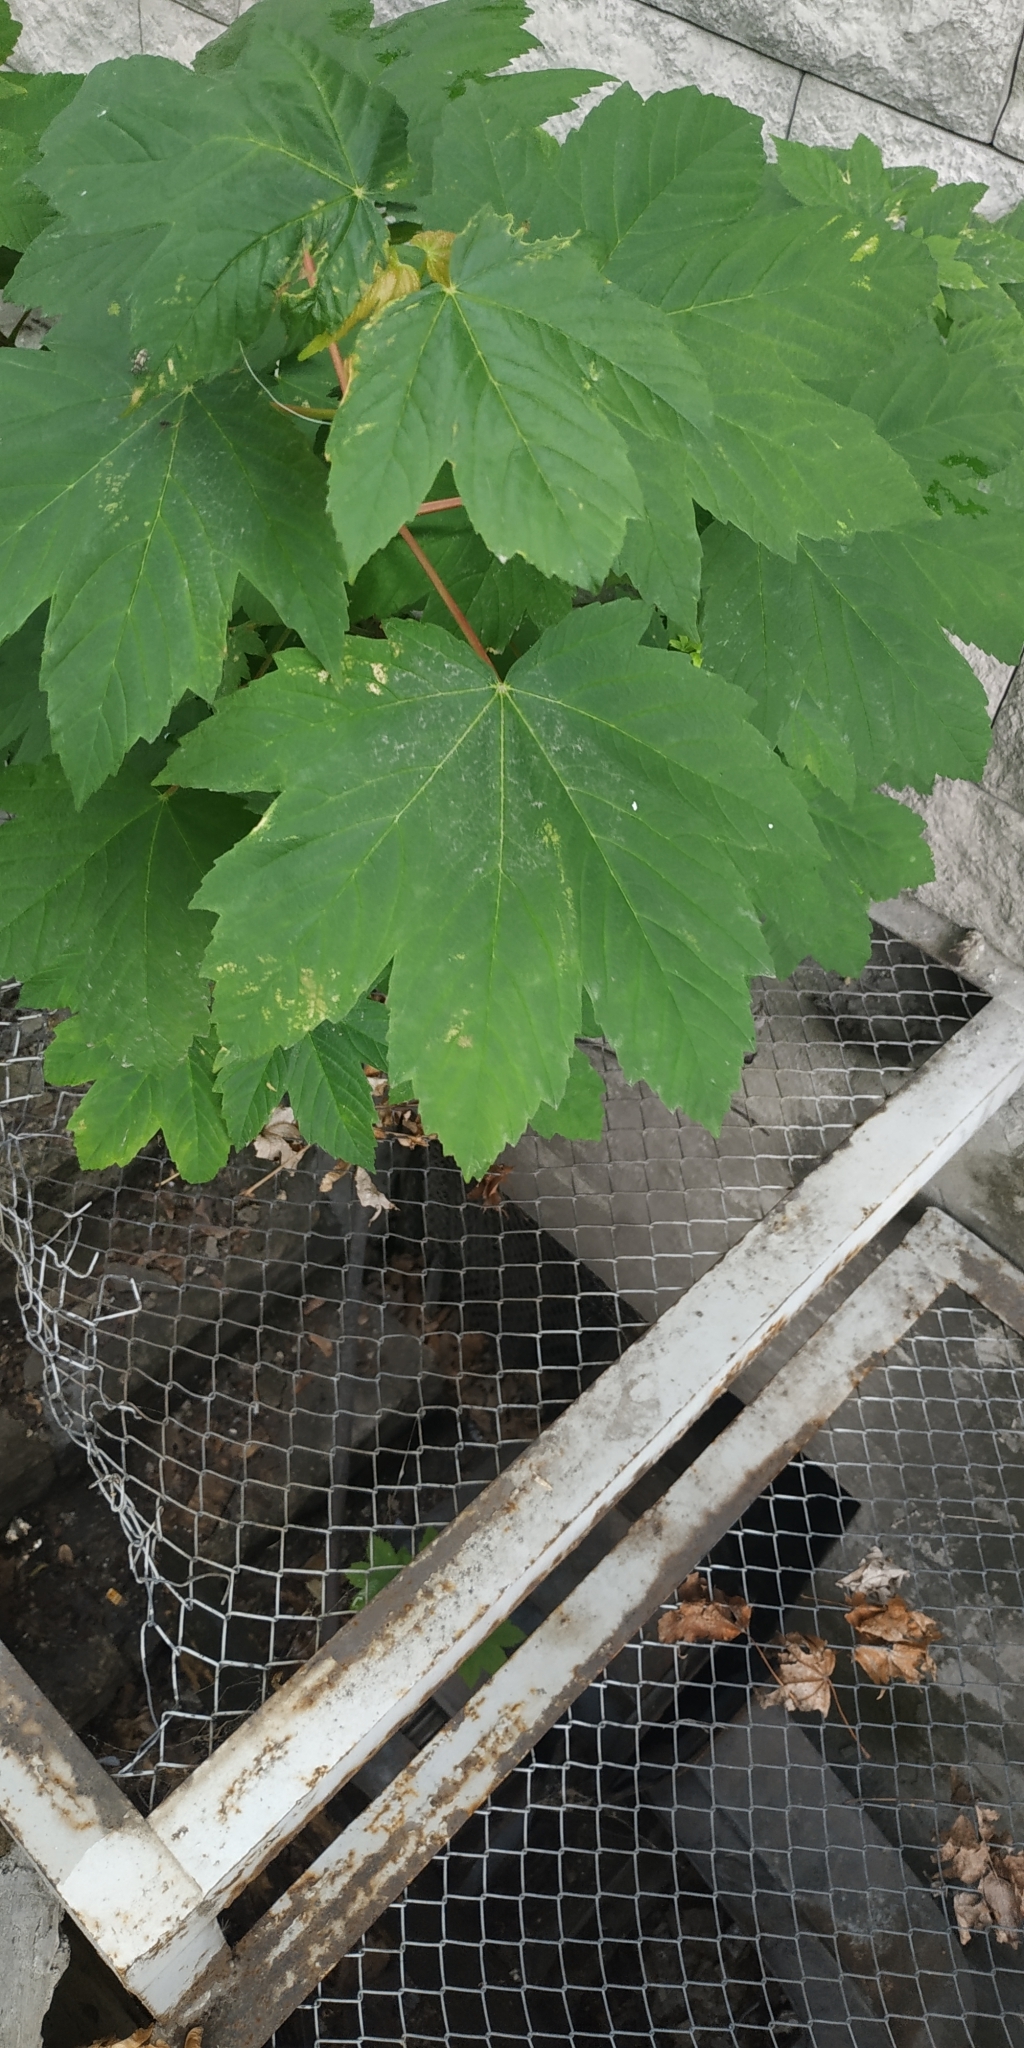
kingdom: Plantae
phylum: Tracheophyta
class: Magnoliopsida
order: Sapindales
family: Sapindaceae
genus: Acer
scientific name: Acer pseudoplatanus
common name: Sycamore
